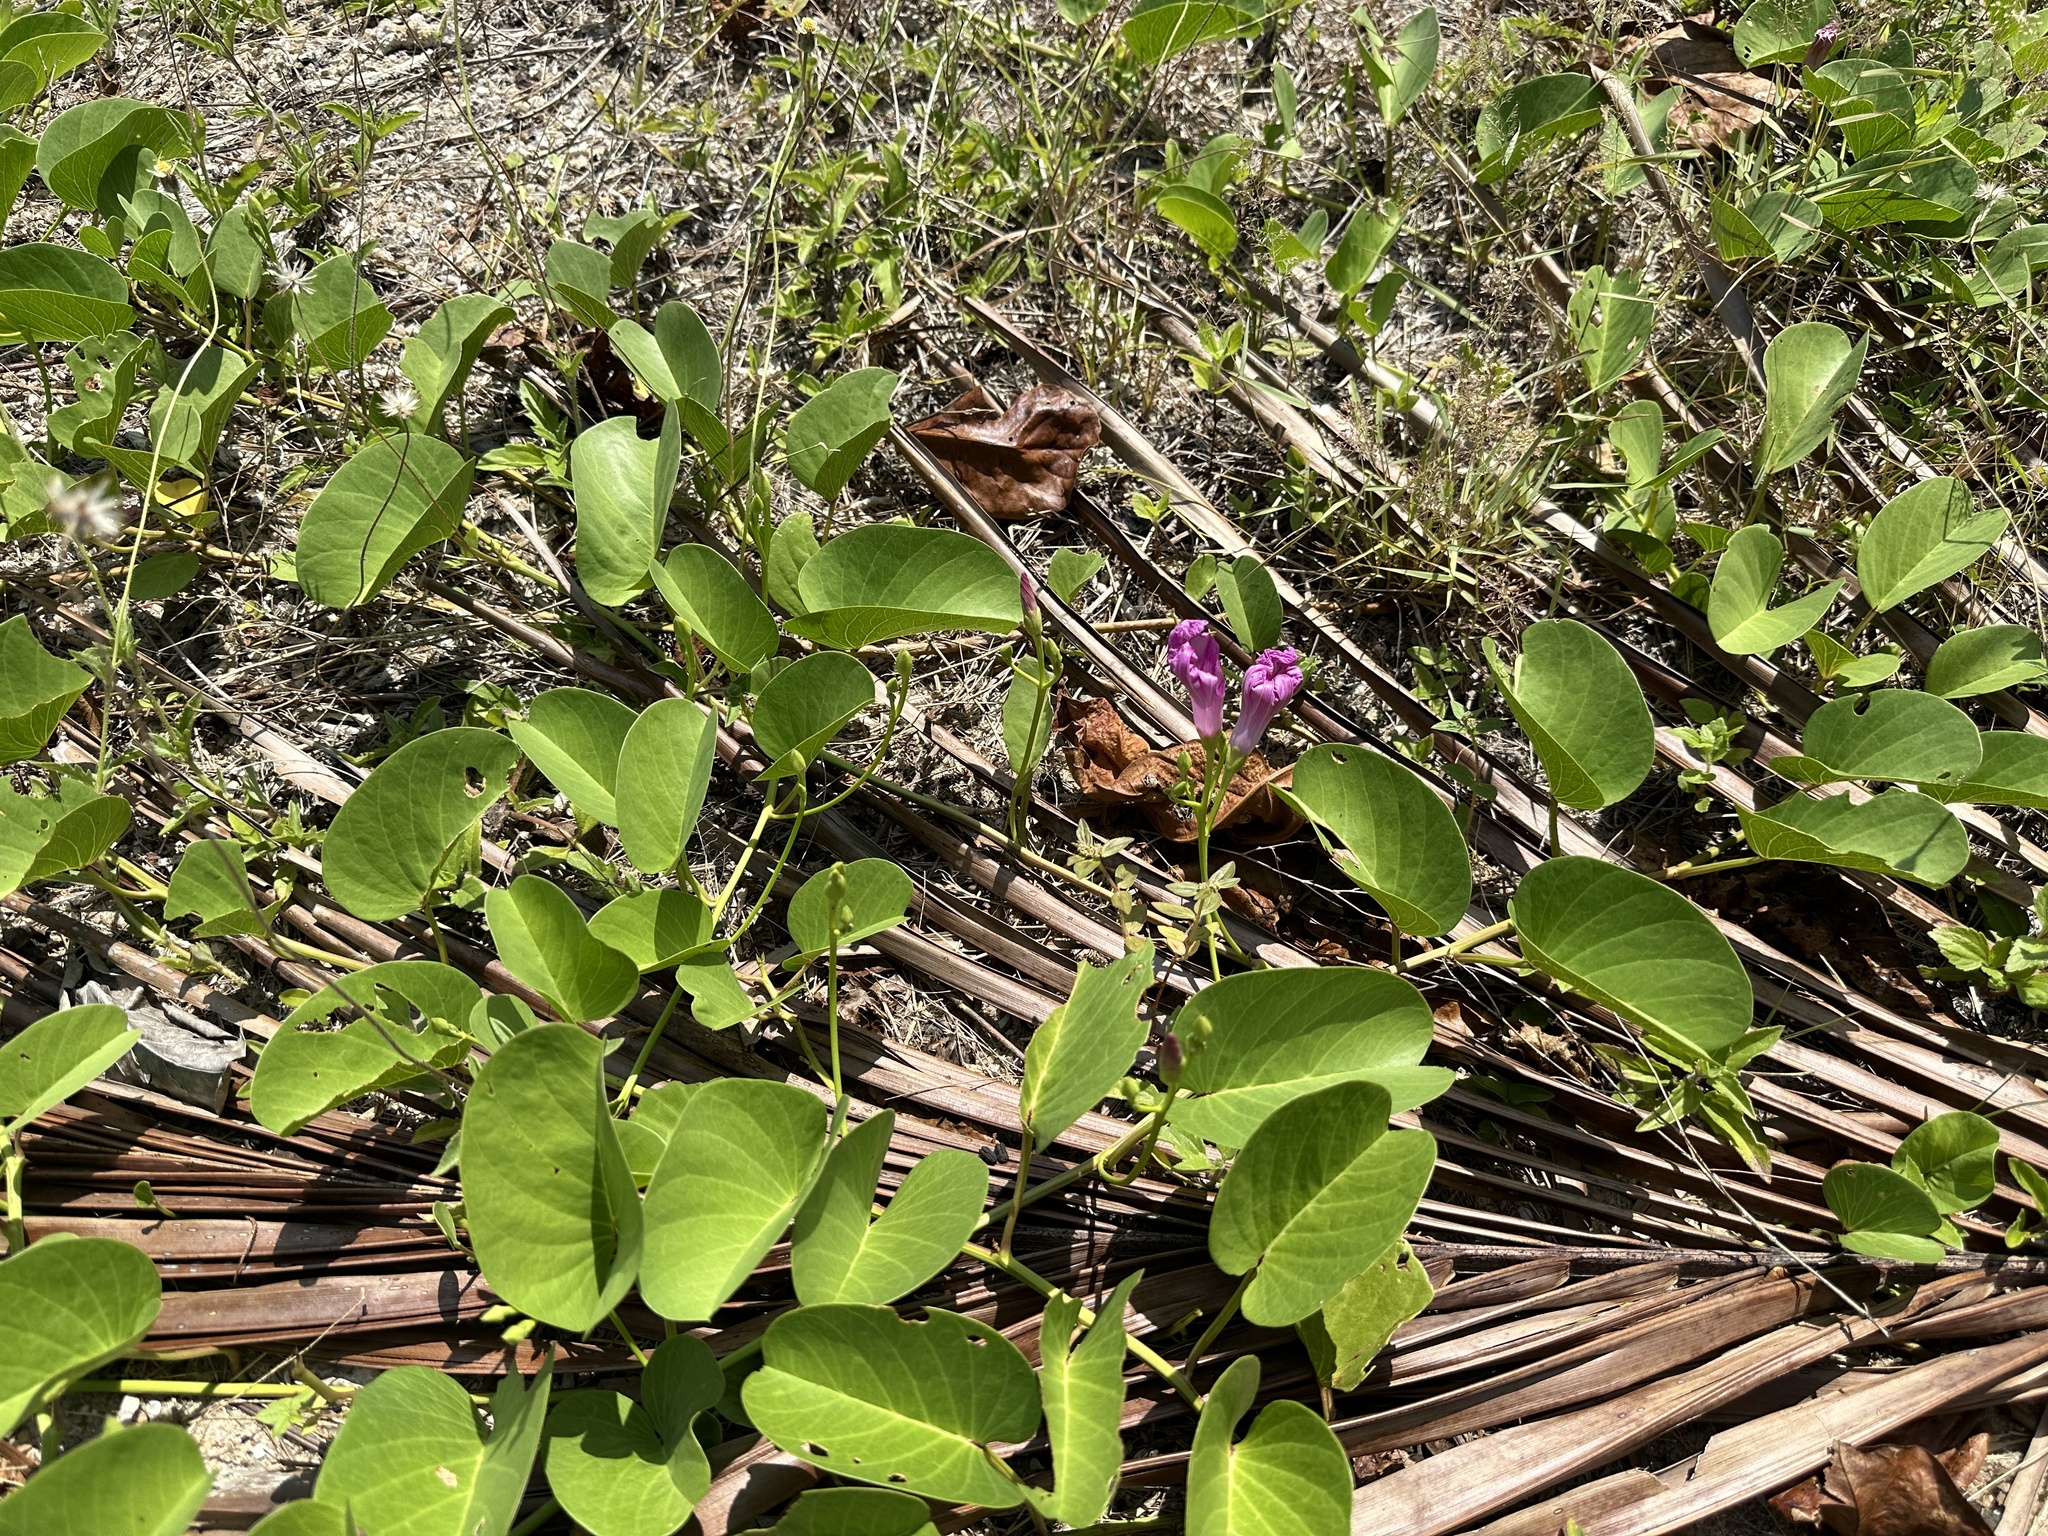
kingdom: Plantae
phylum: Tracheophyta
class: Magnoliopsida
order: Solanales
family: Convolvulaceae
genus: Ipomoea
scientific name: Ipomoea pes-caprae
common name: Beach morning glory
